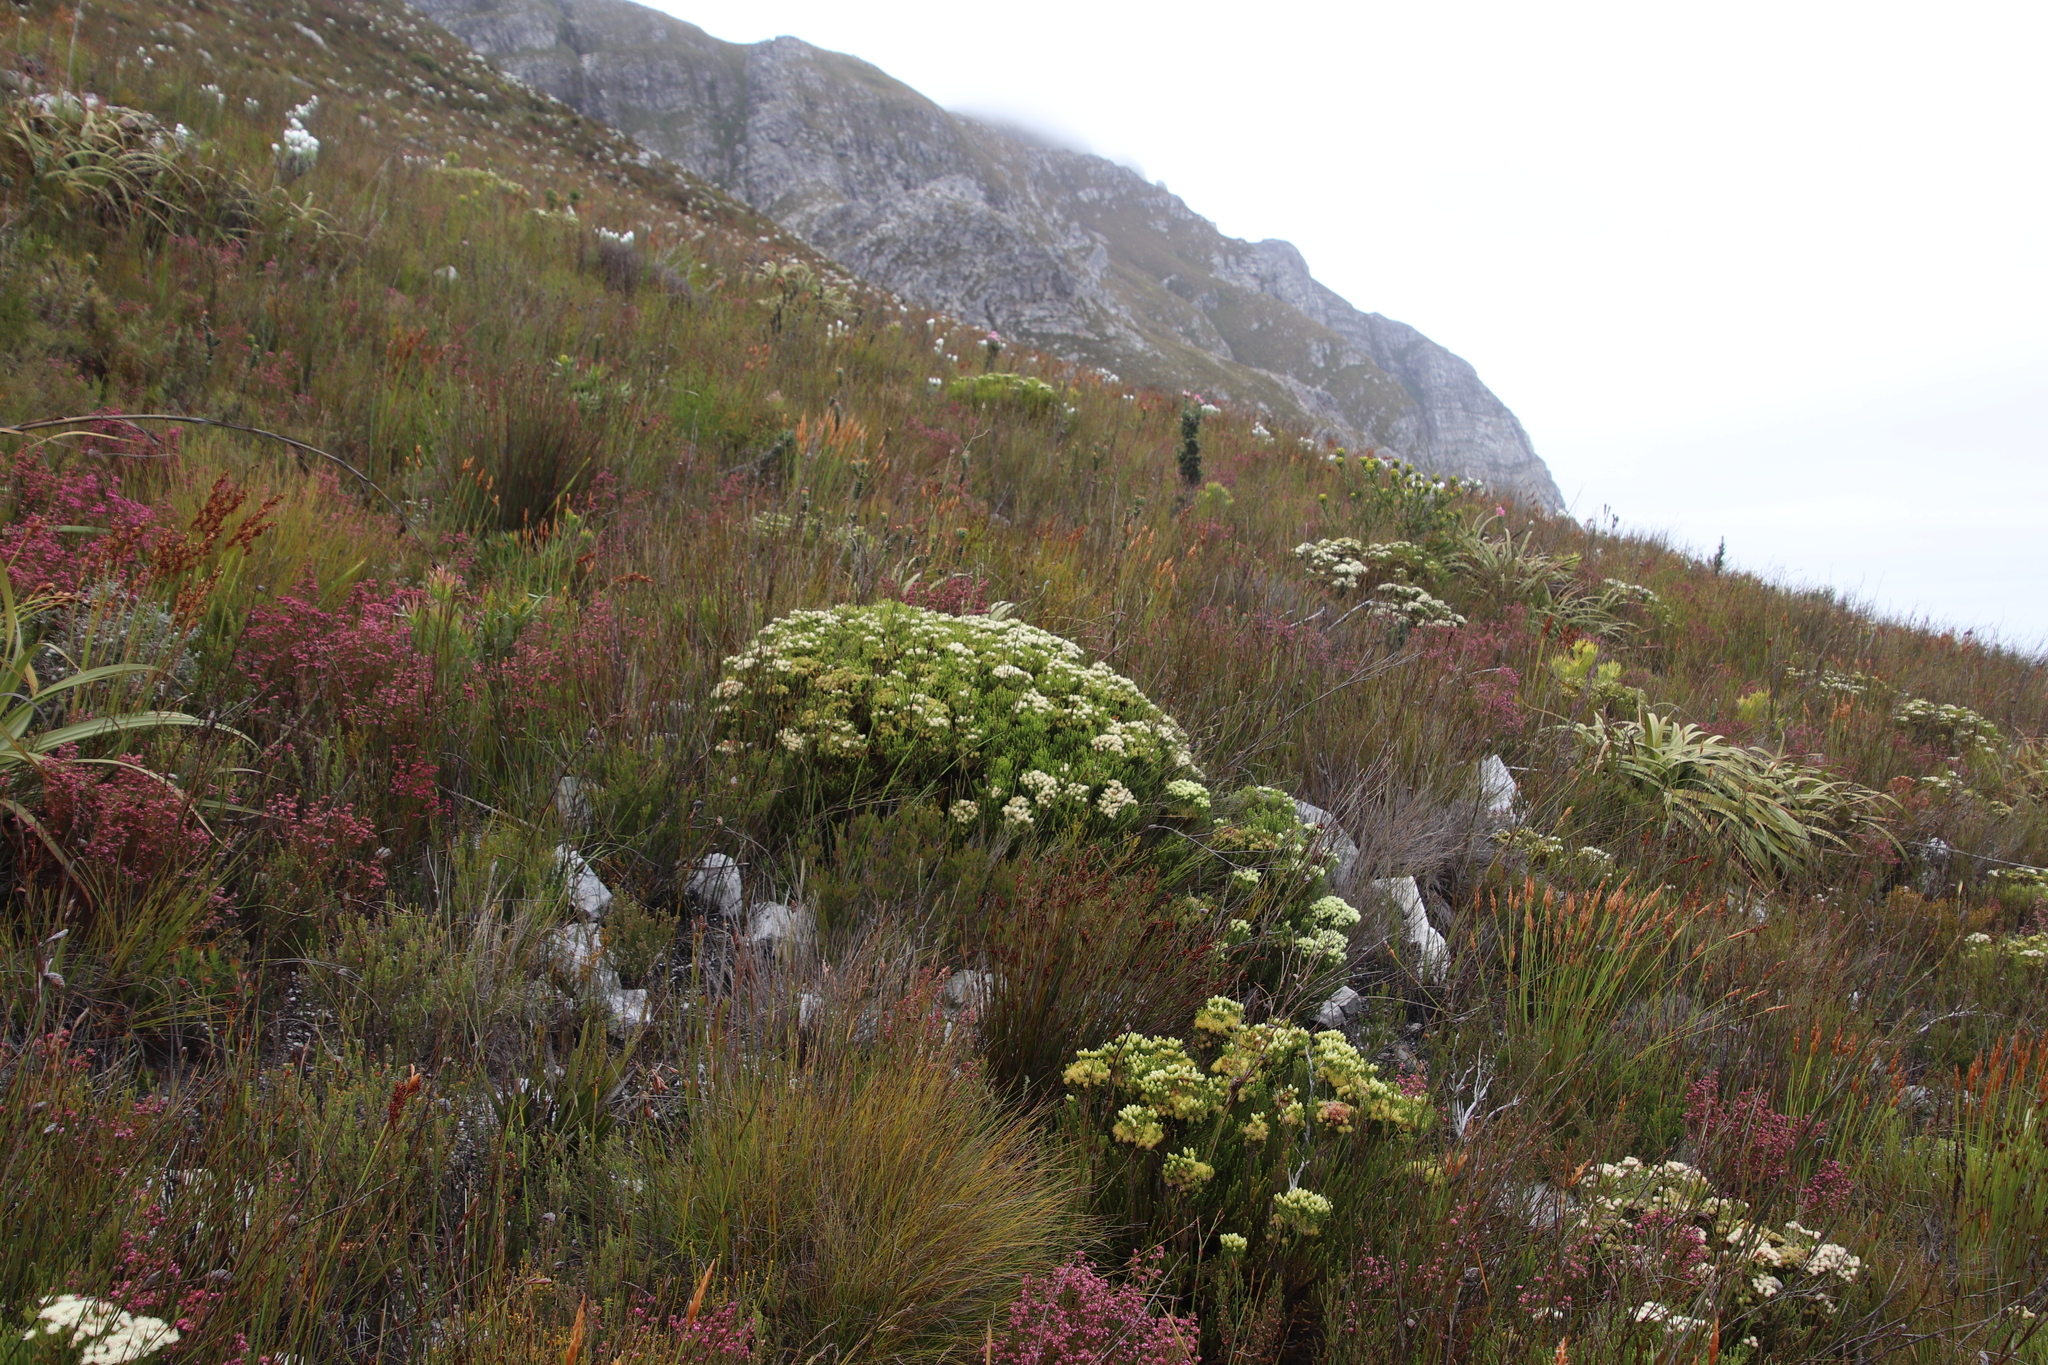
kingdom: Plantae
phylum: Tracheophyta
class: Magnoliopsida
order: Bruniales
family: Bruniaceae
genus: Brunia
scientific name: Brunia paleacea
